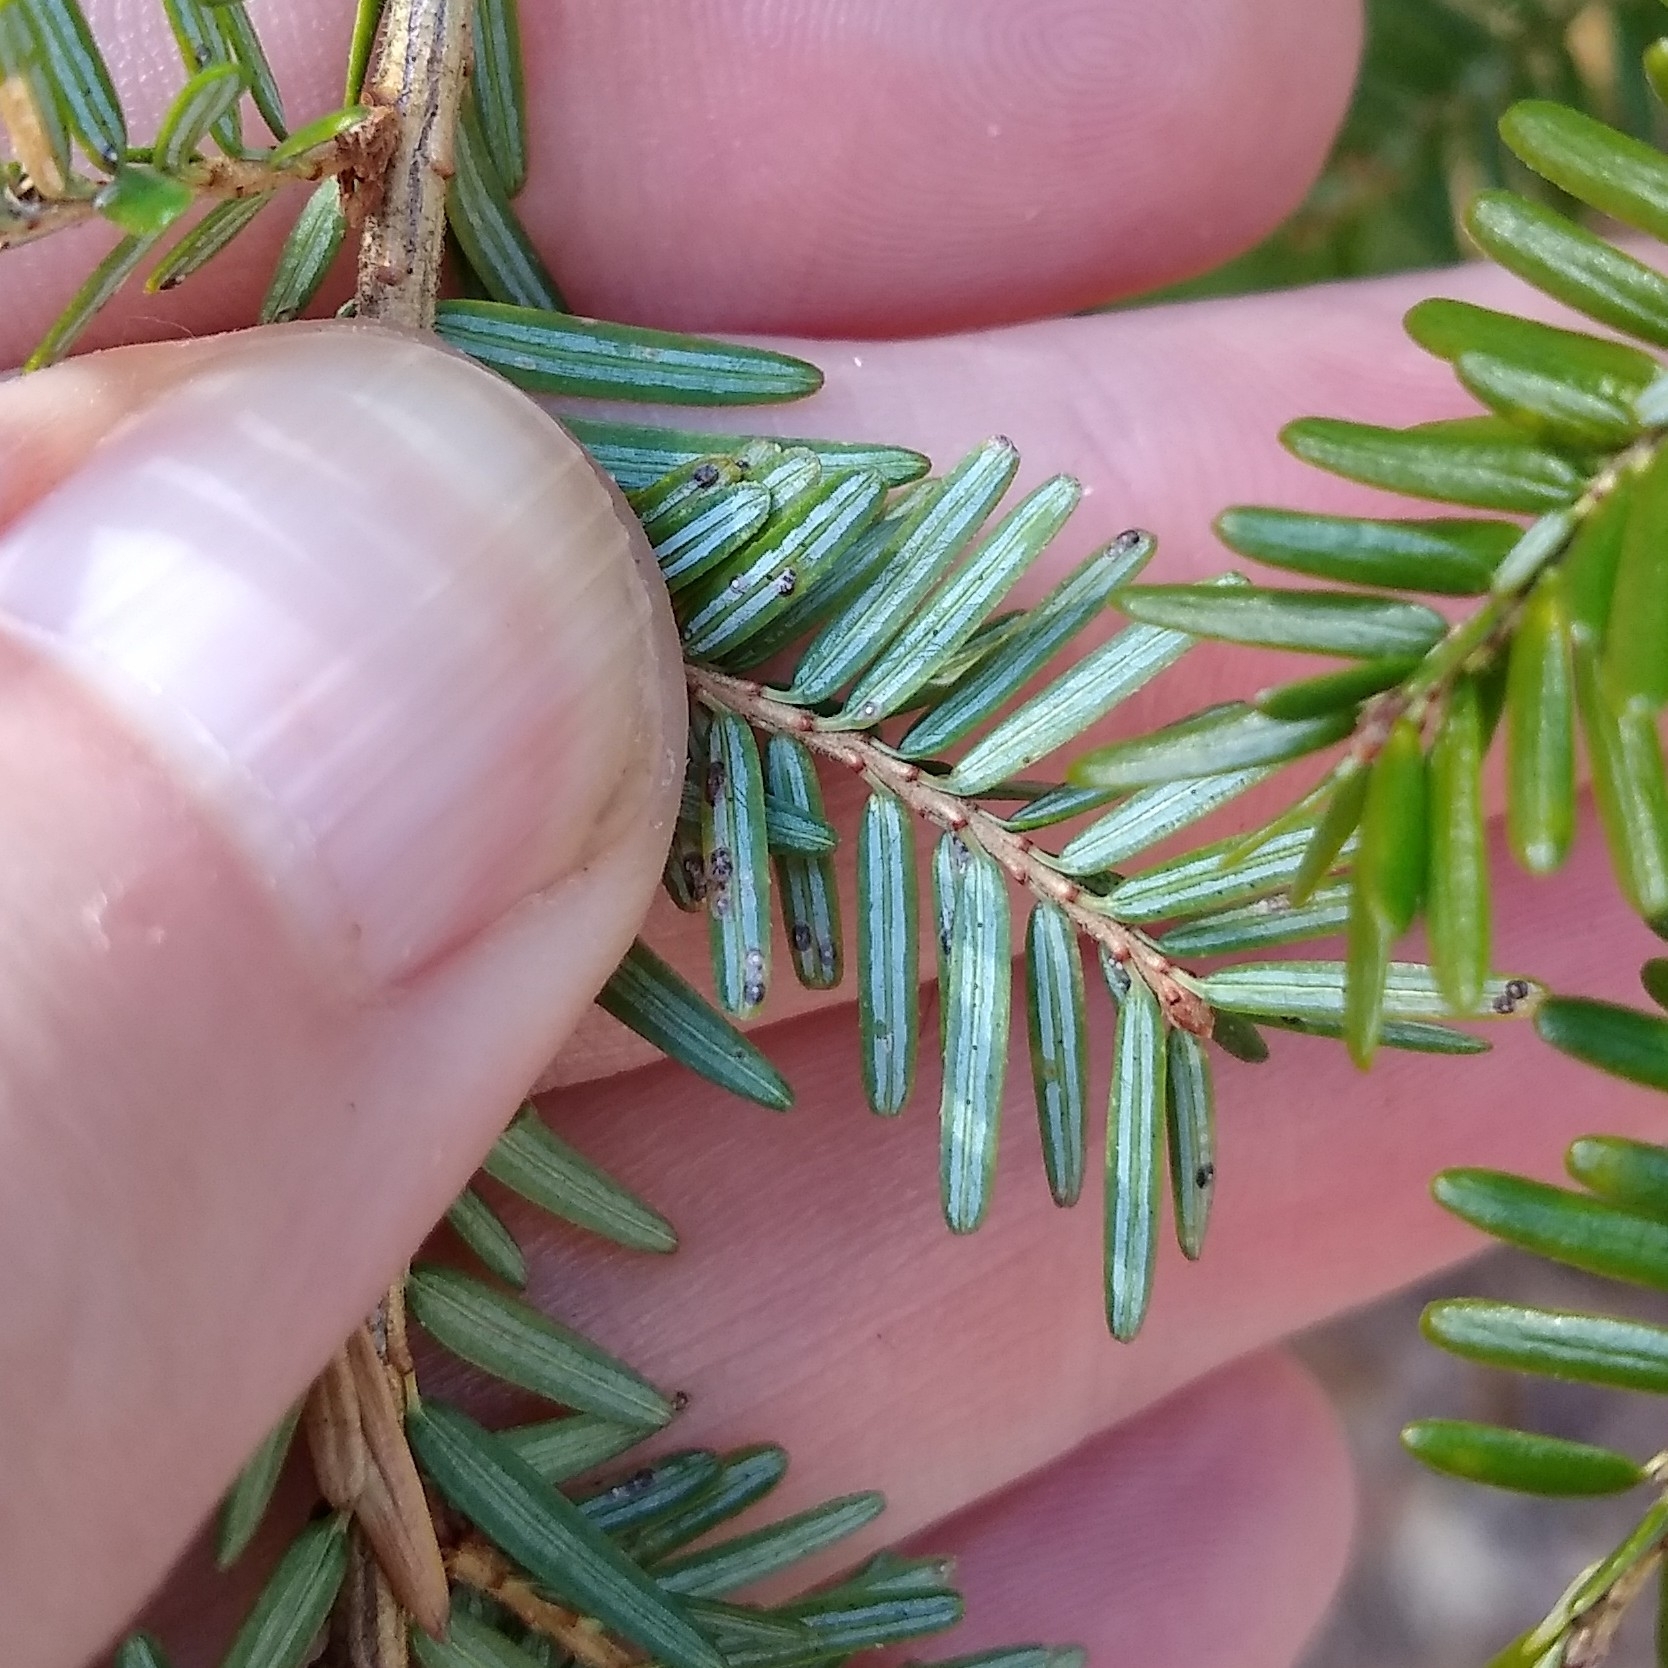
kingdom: Animalia
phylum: Arthropoda
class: Insecta
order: Hemiptera
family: Diaspididae
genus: Fiorinia
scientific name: Fiorinia externa
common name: Elongate hemlock scale
